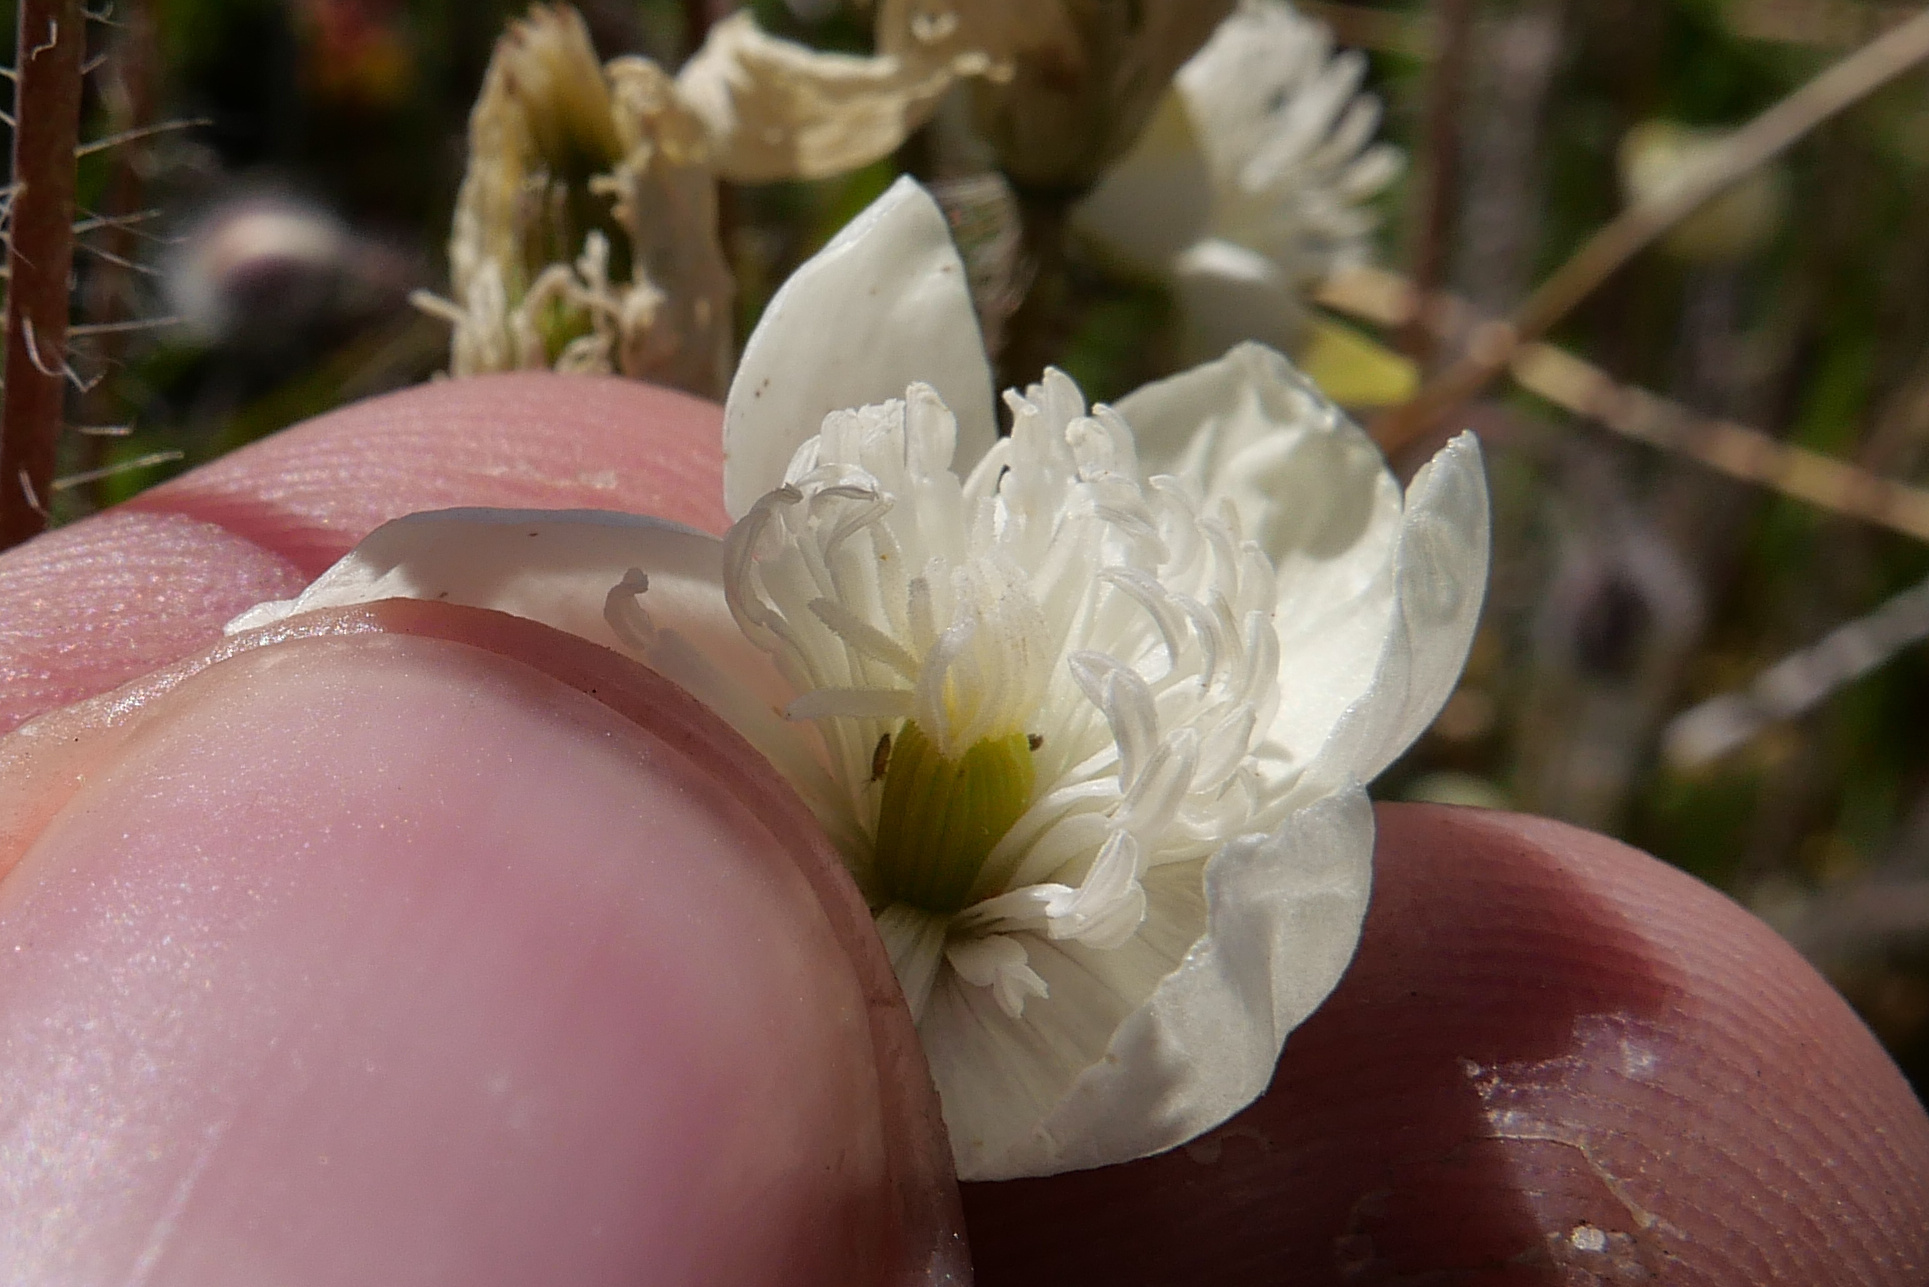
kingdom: Plantae
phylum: Tracheophyta
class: Magnoliopsida
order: Ranunculales
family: Papaveraceae
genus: Platystemon
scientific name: Platystemon californicus
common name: Cream-cups
